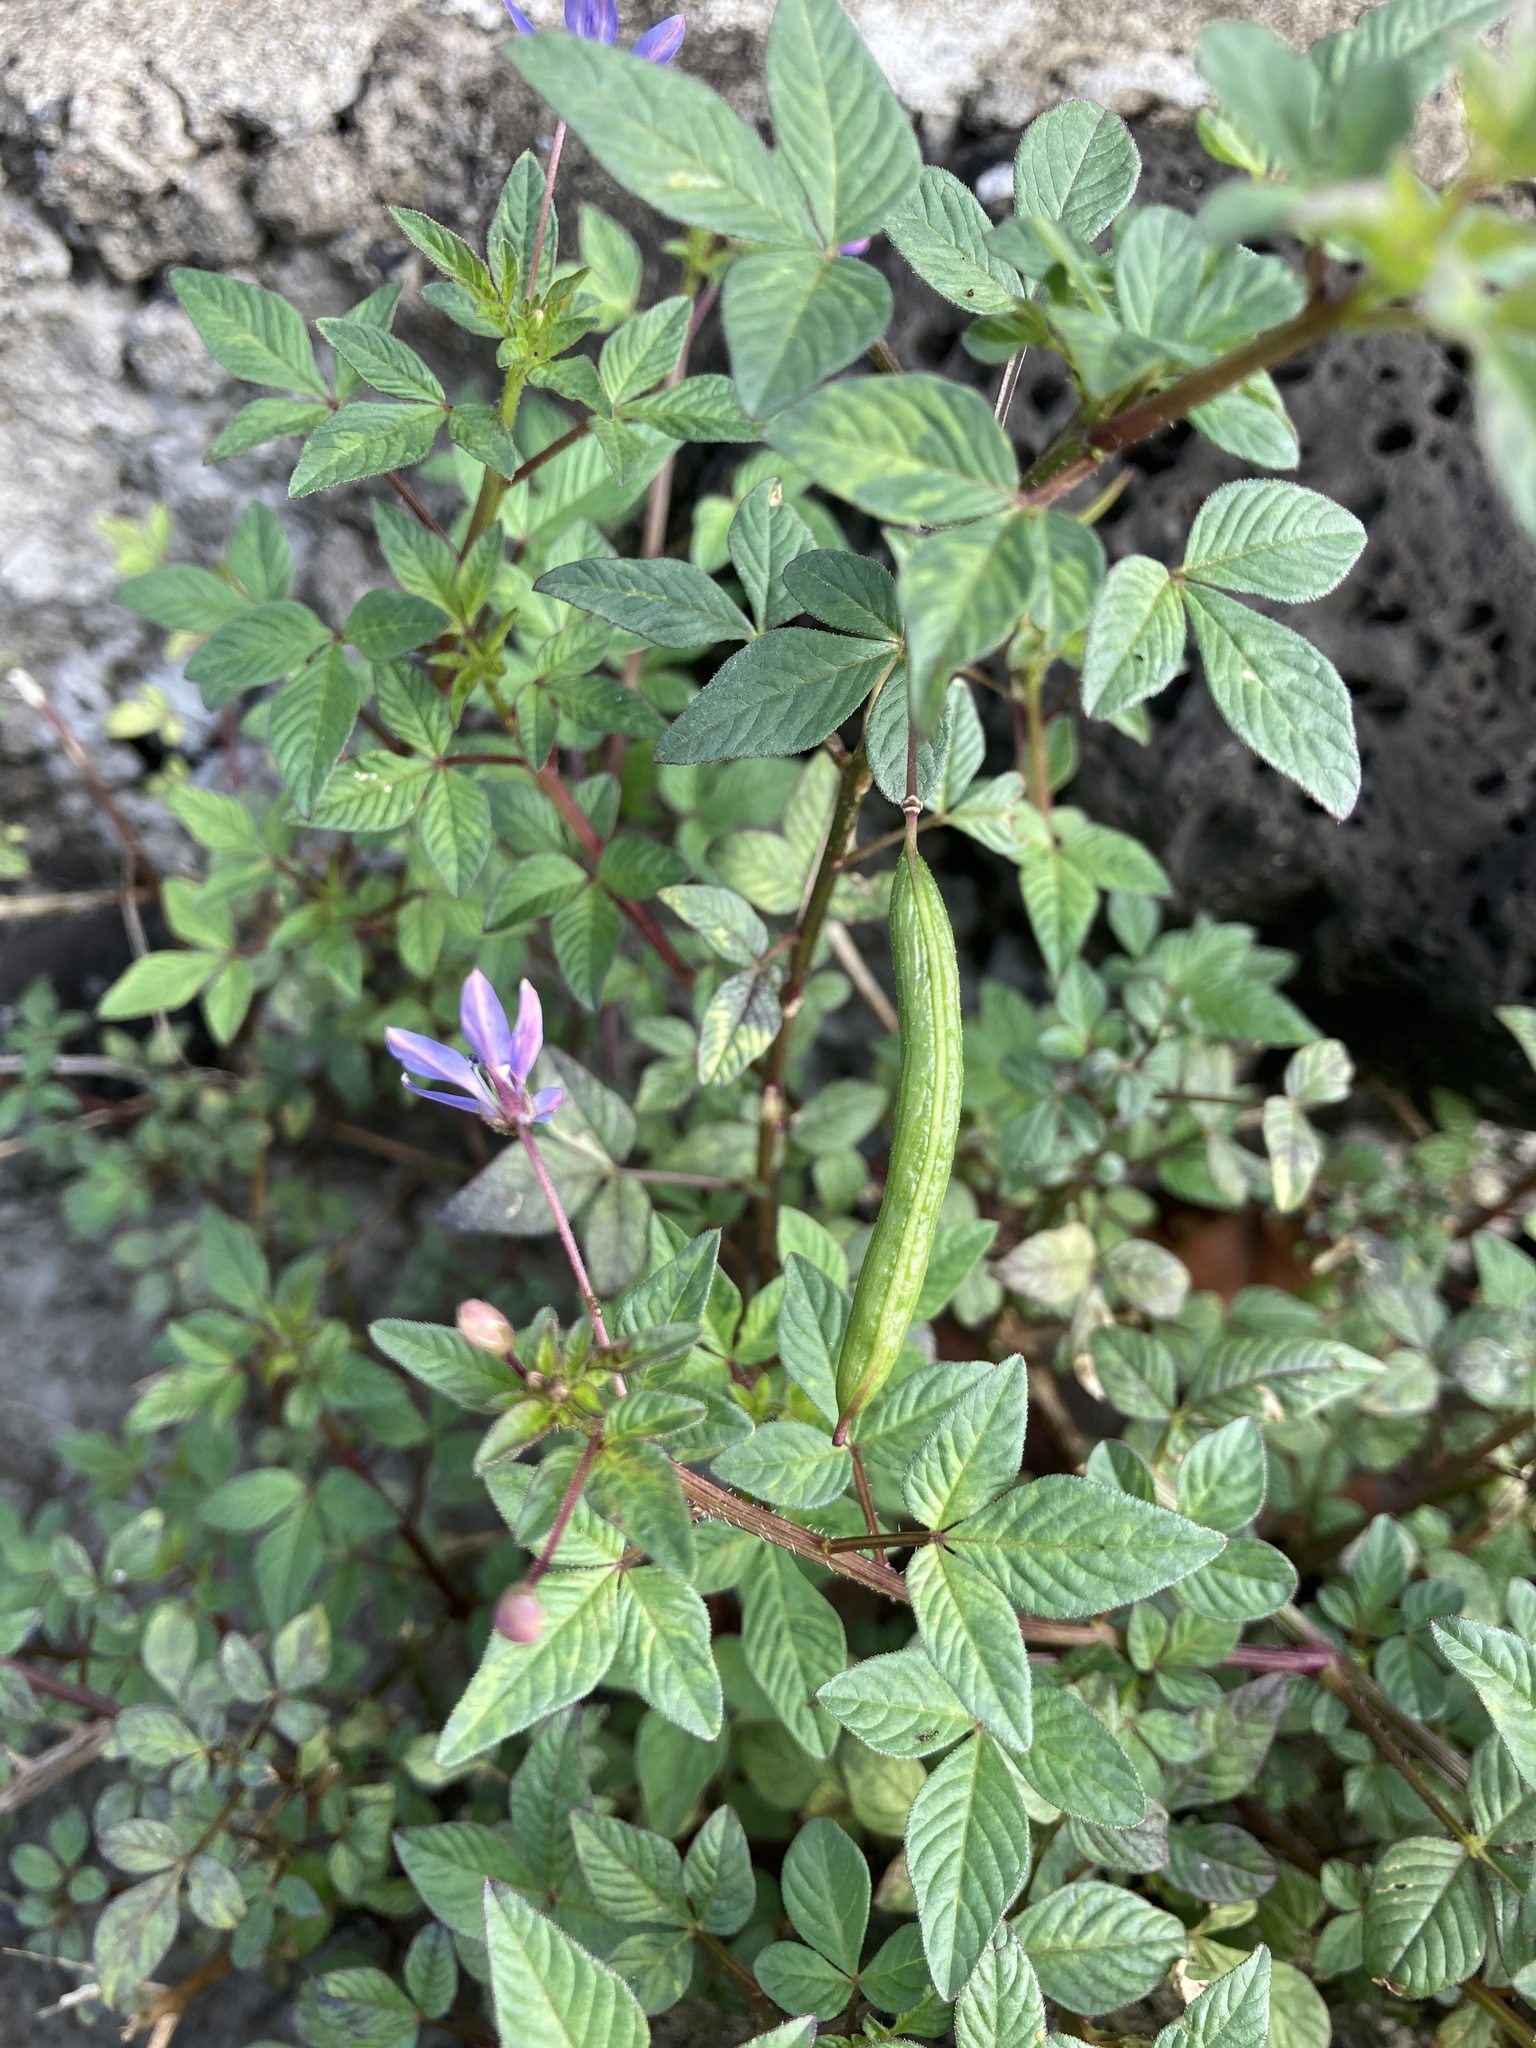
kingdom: Plantae
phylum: Tracheophyta
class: Magnoliopsida
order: Brassicales
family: Cleomaceae
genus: Sieruela
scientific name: Sieruela rutidosperma
